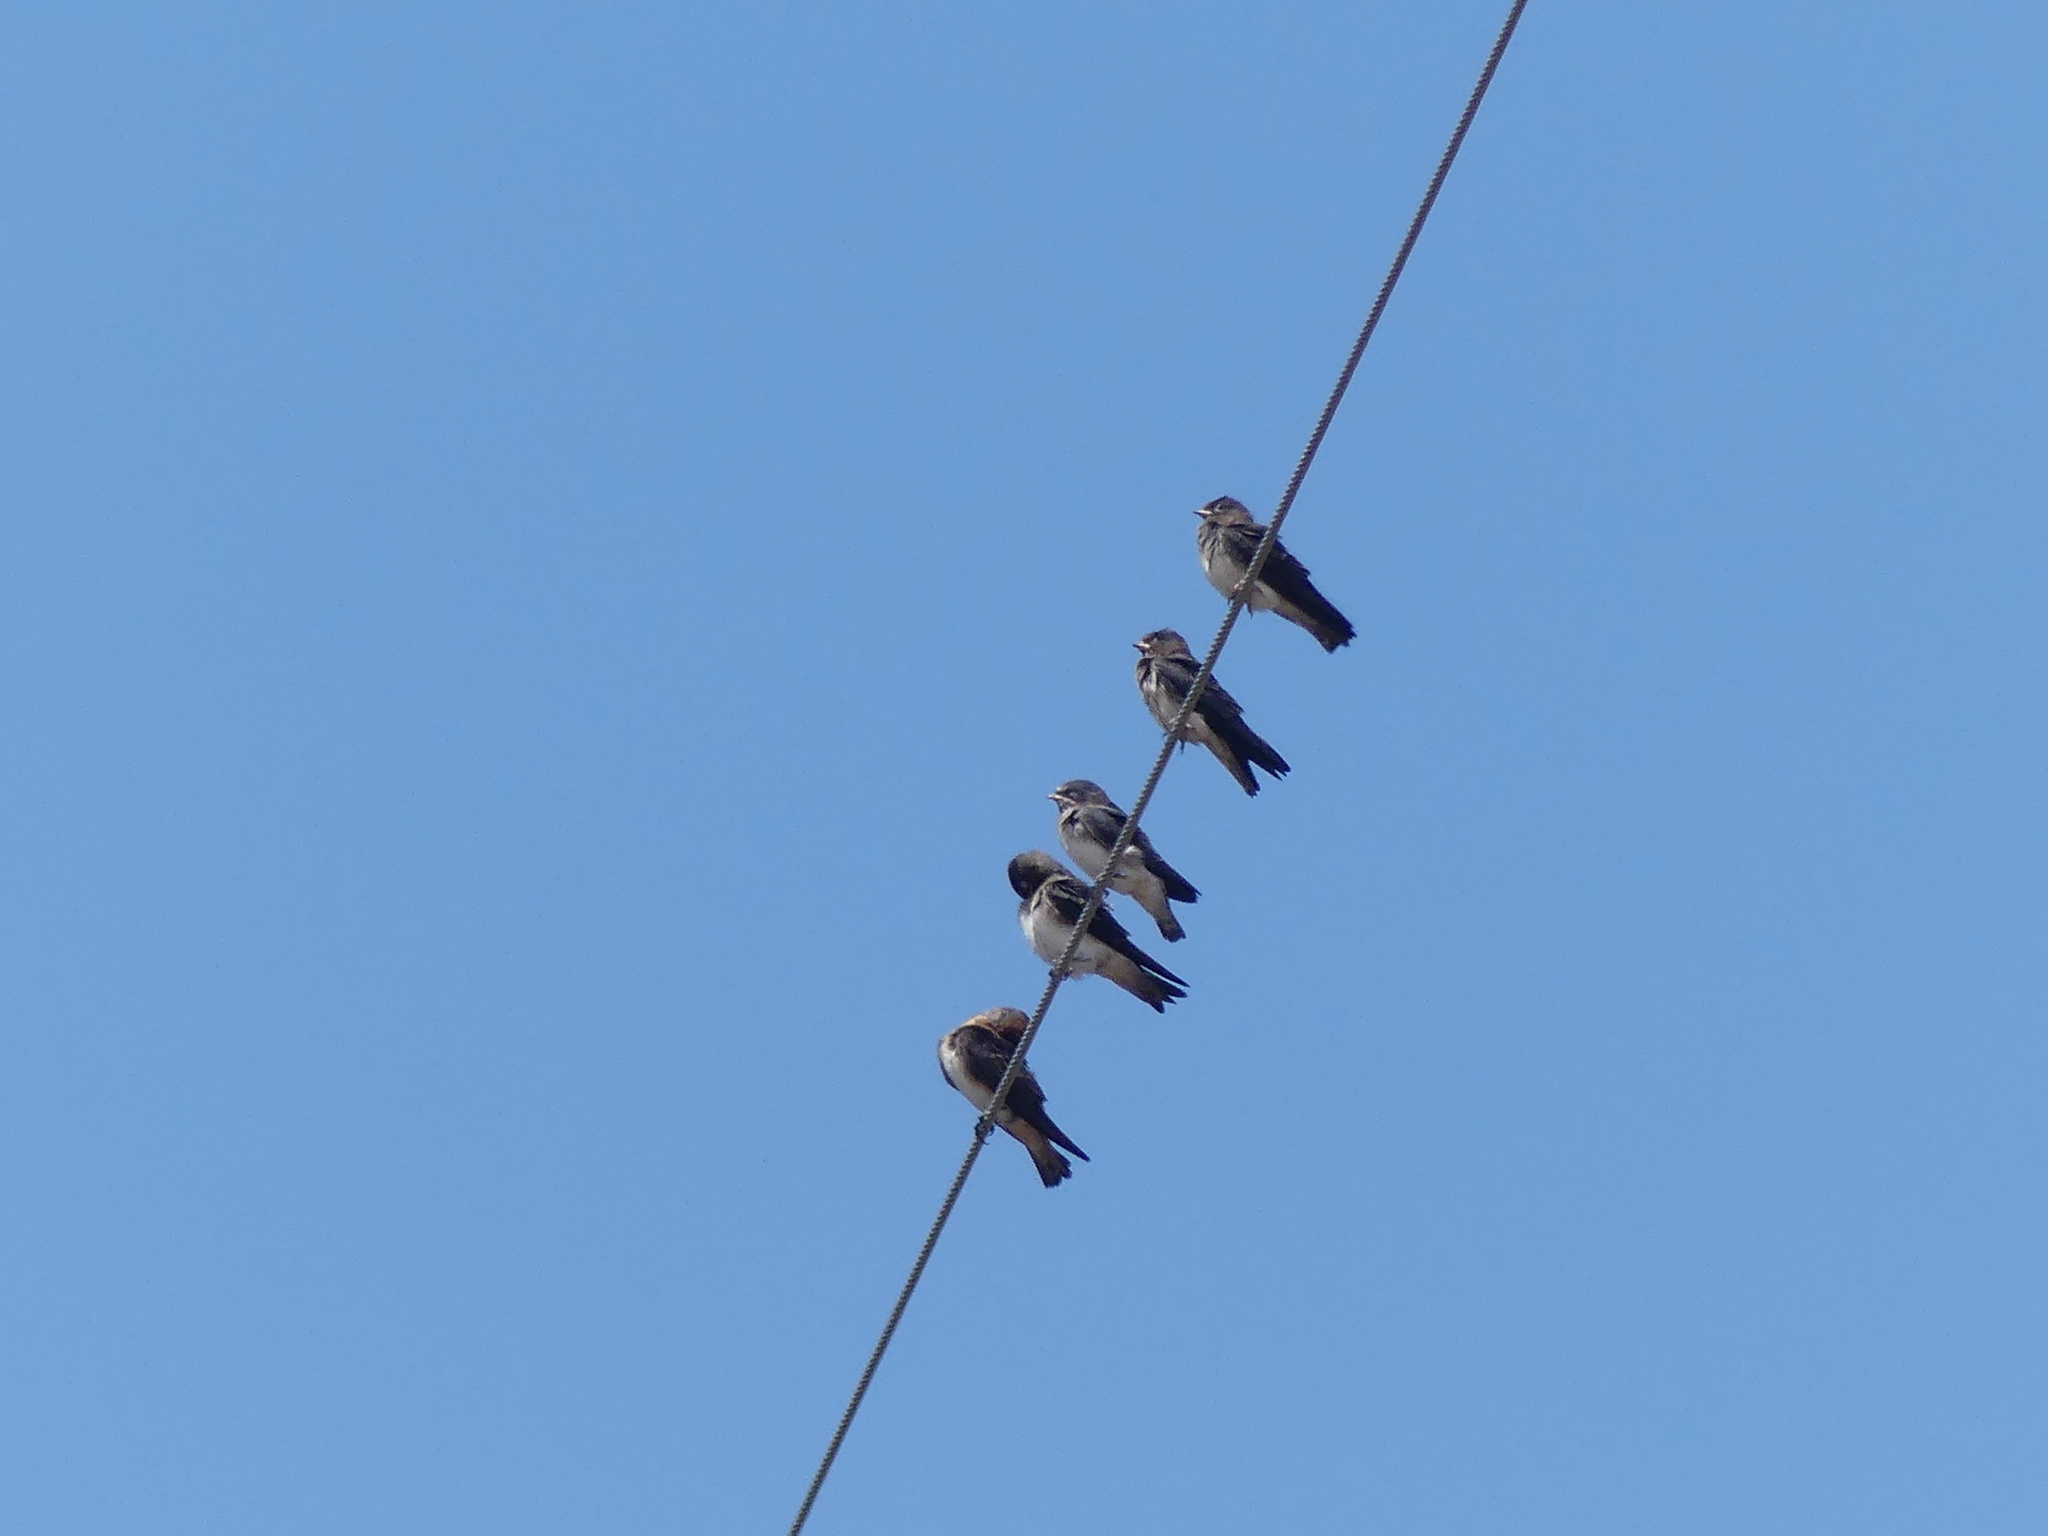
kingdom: Animalia
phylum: Chordata
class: Aves
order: Passeriformes
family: Hirundinidae
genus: Petrochelidon
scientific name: Petrochelidon pyrrhonota
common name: American cliff swallow
